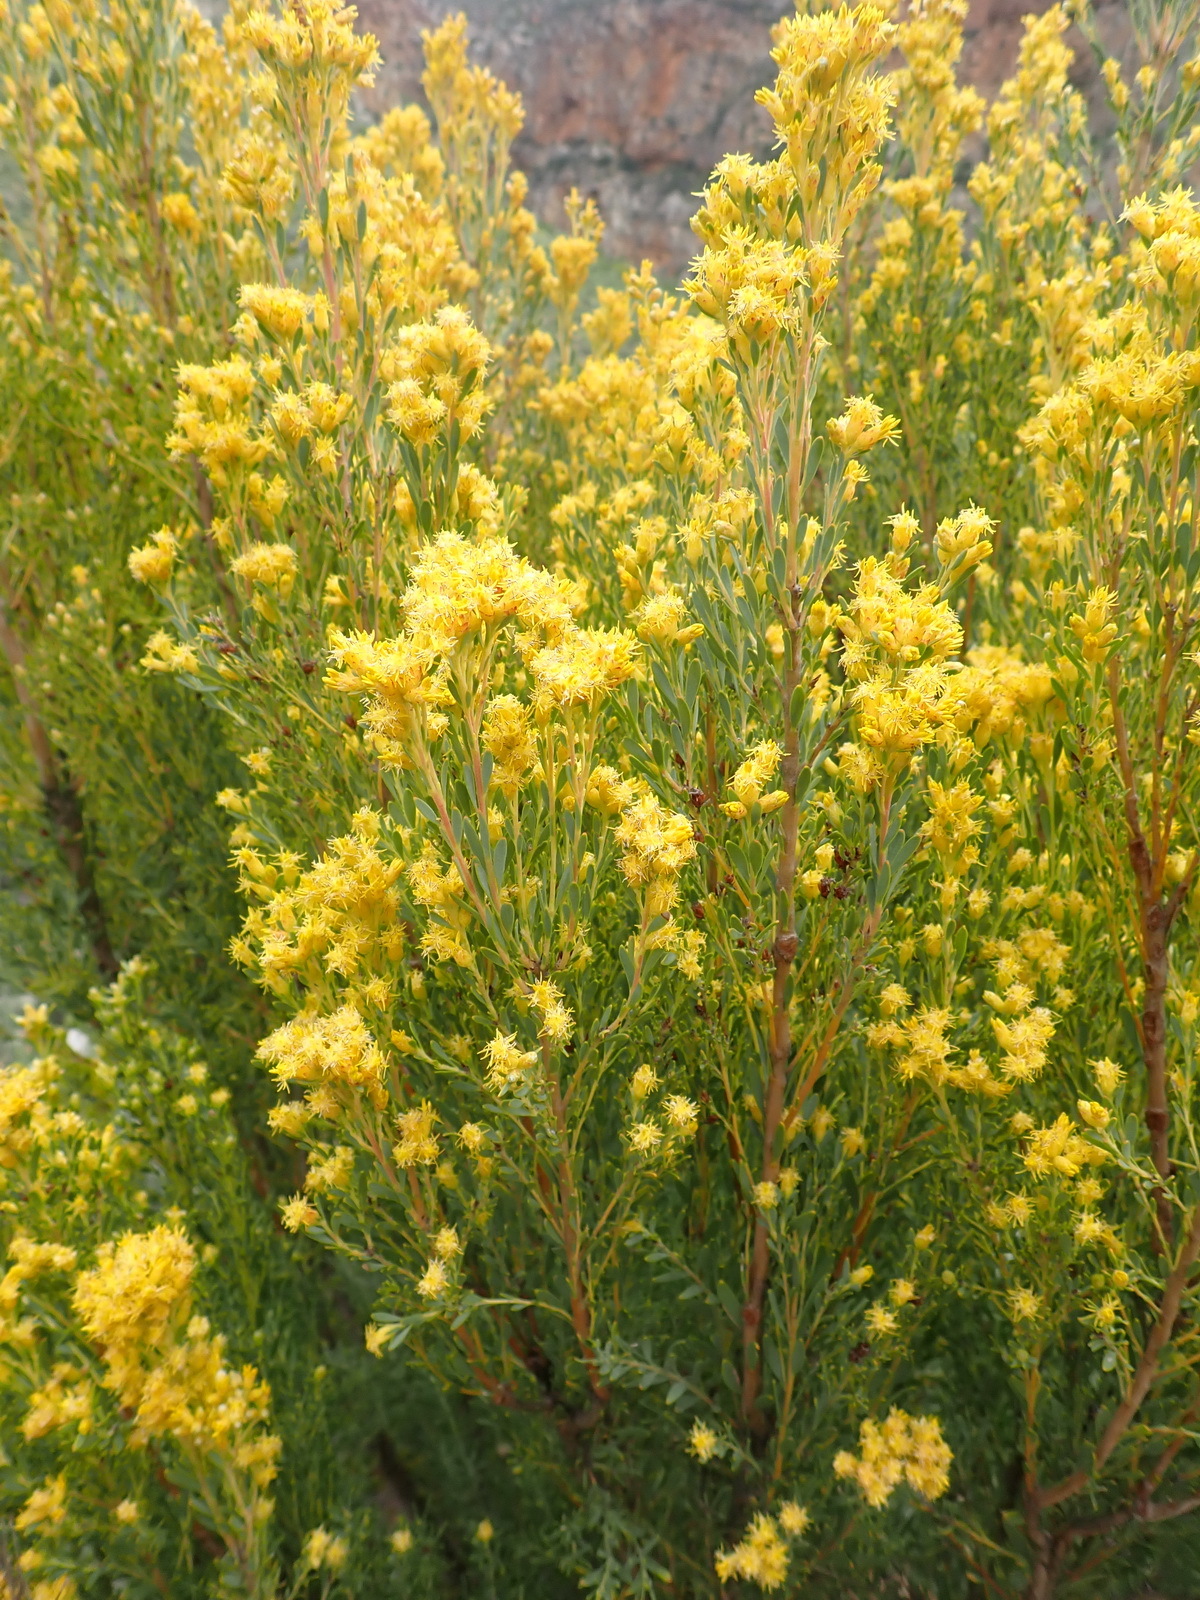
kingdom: Plantae
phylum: Tracheophyta
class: Magnoliopsida
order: Proteales
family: Proteaceae
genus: Leucadendron
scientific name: Leucadendron rubrum
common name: Spinning top
